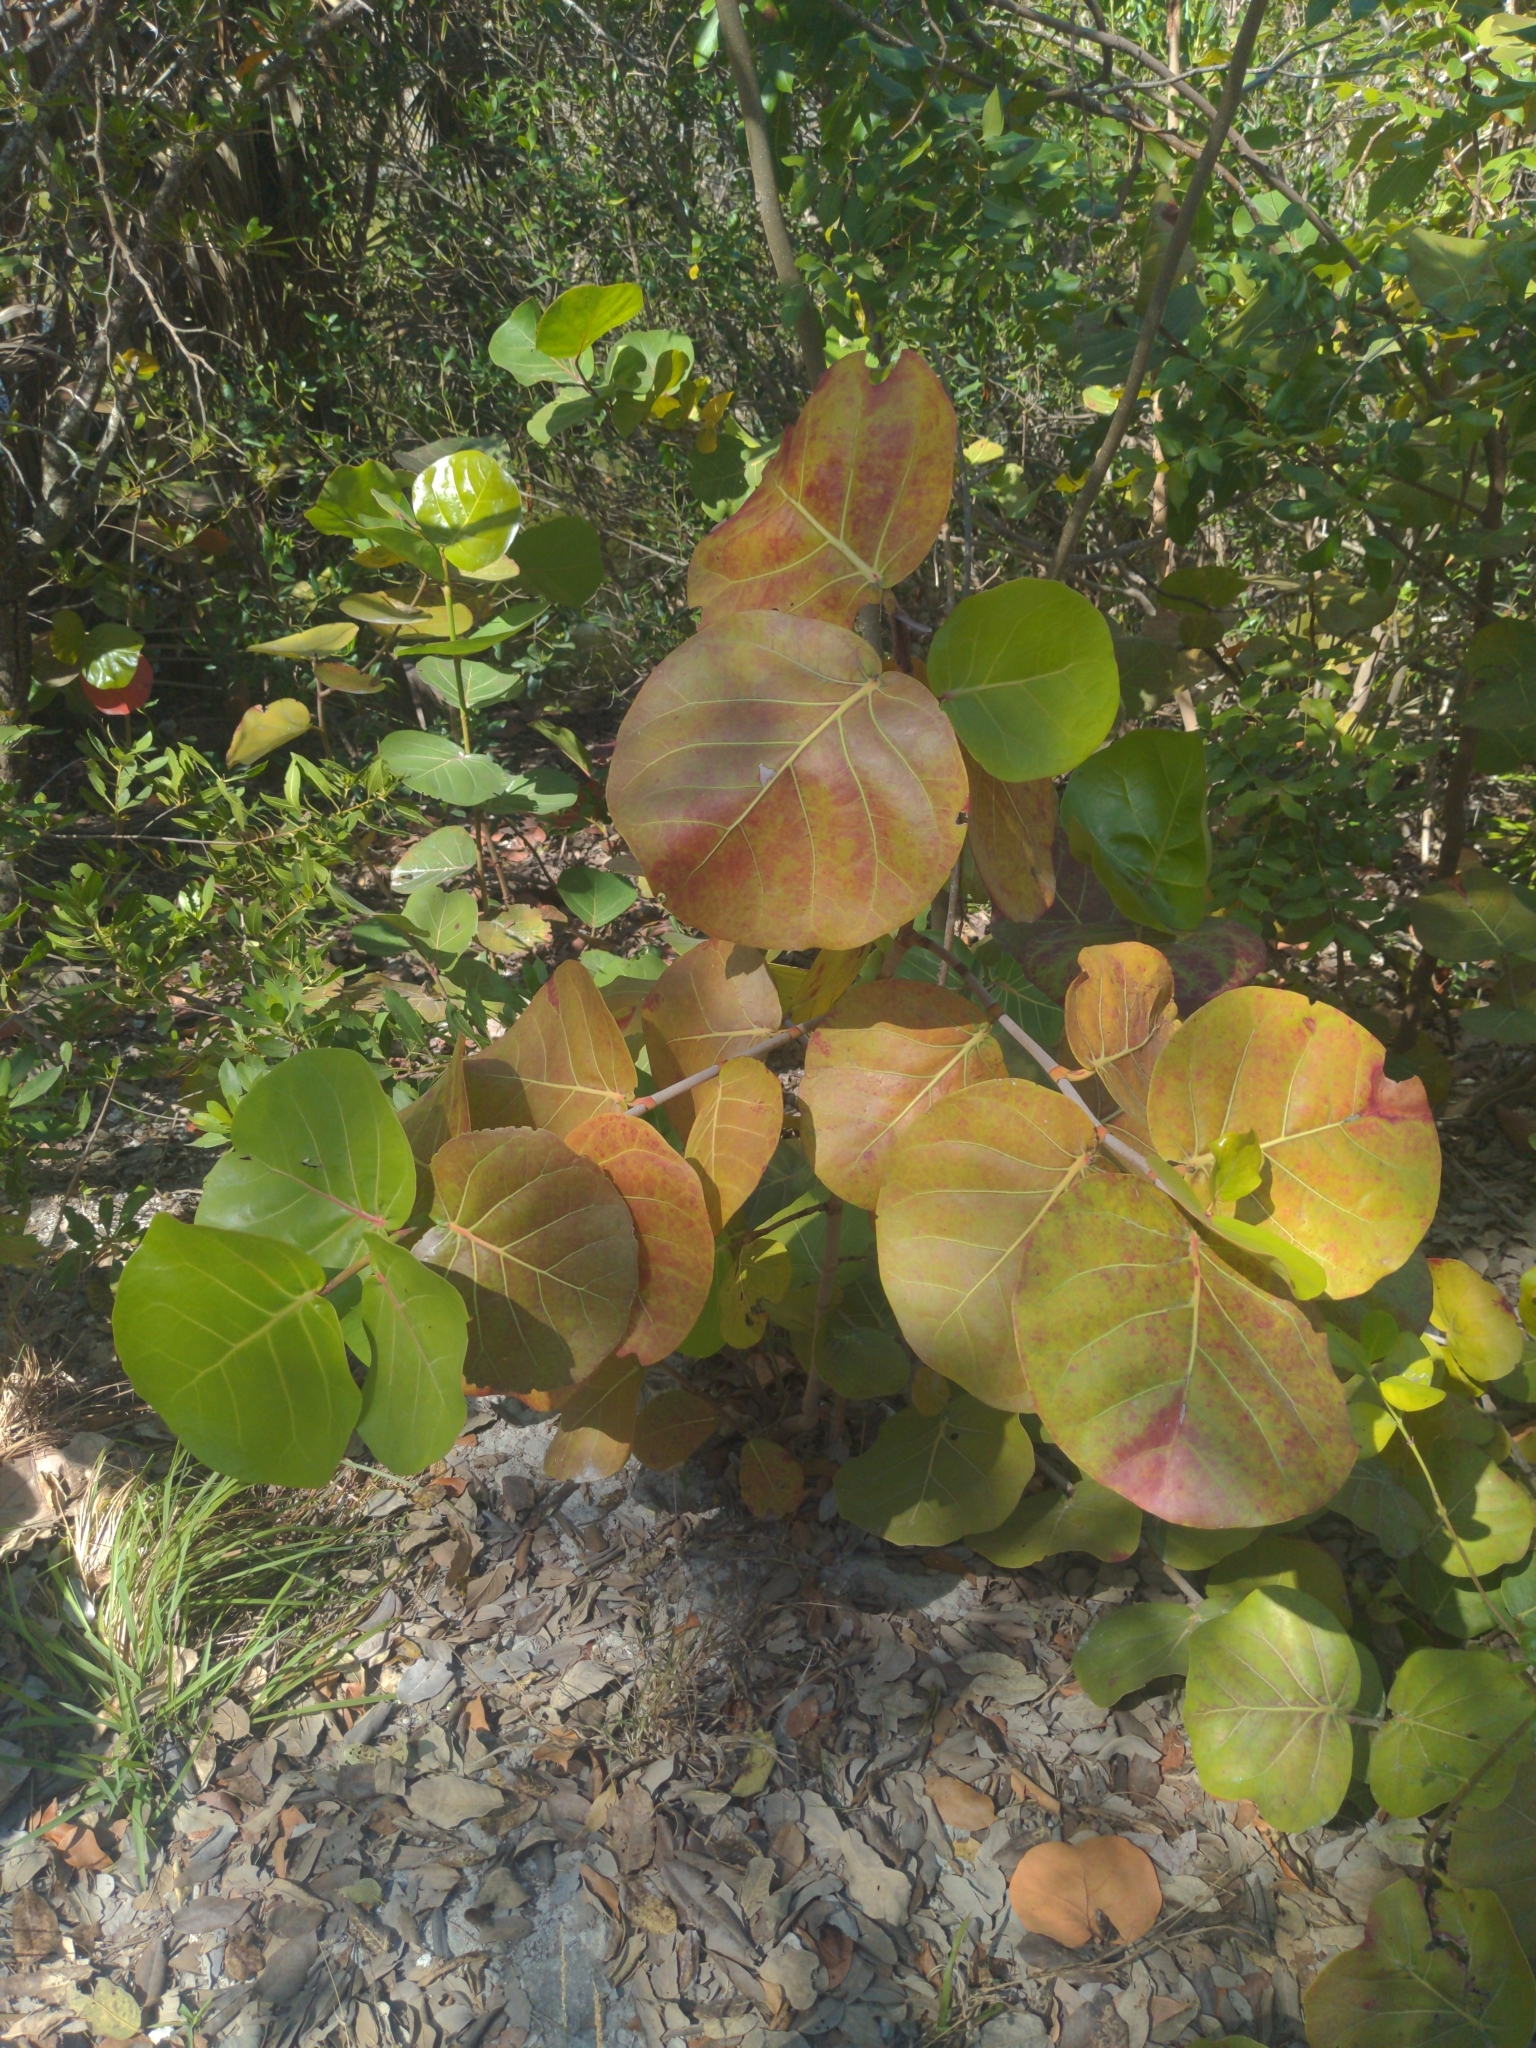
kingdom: Plantae
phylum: Tracheophyta
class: Magnoliopsida
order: Caryophyllales
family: Polygonaceae
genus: Coccoloba
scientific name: Coccoloba uvifera
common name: Seagrape
